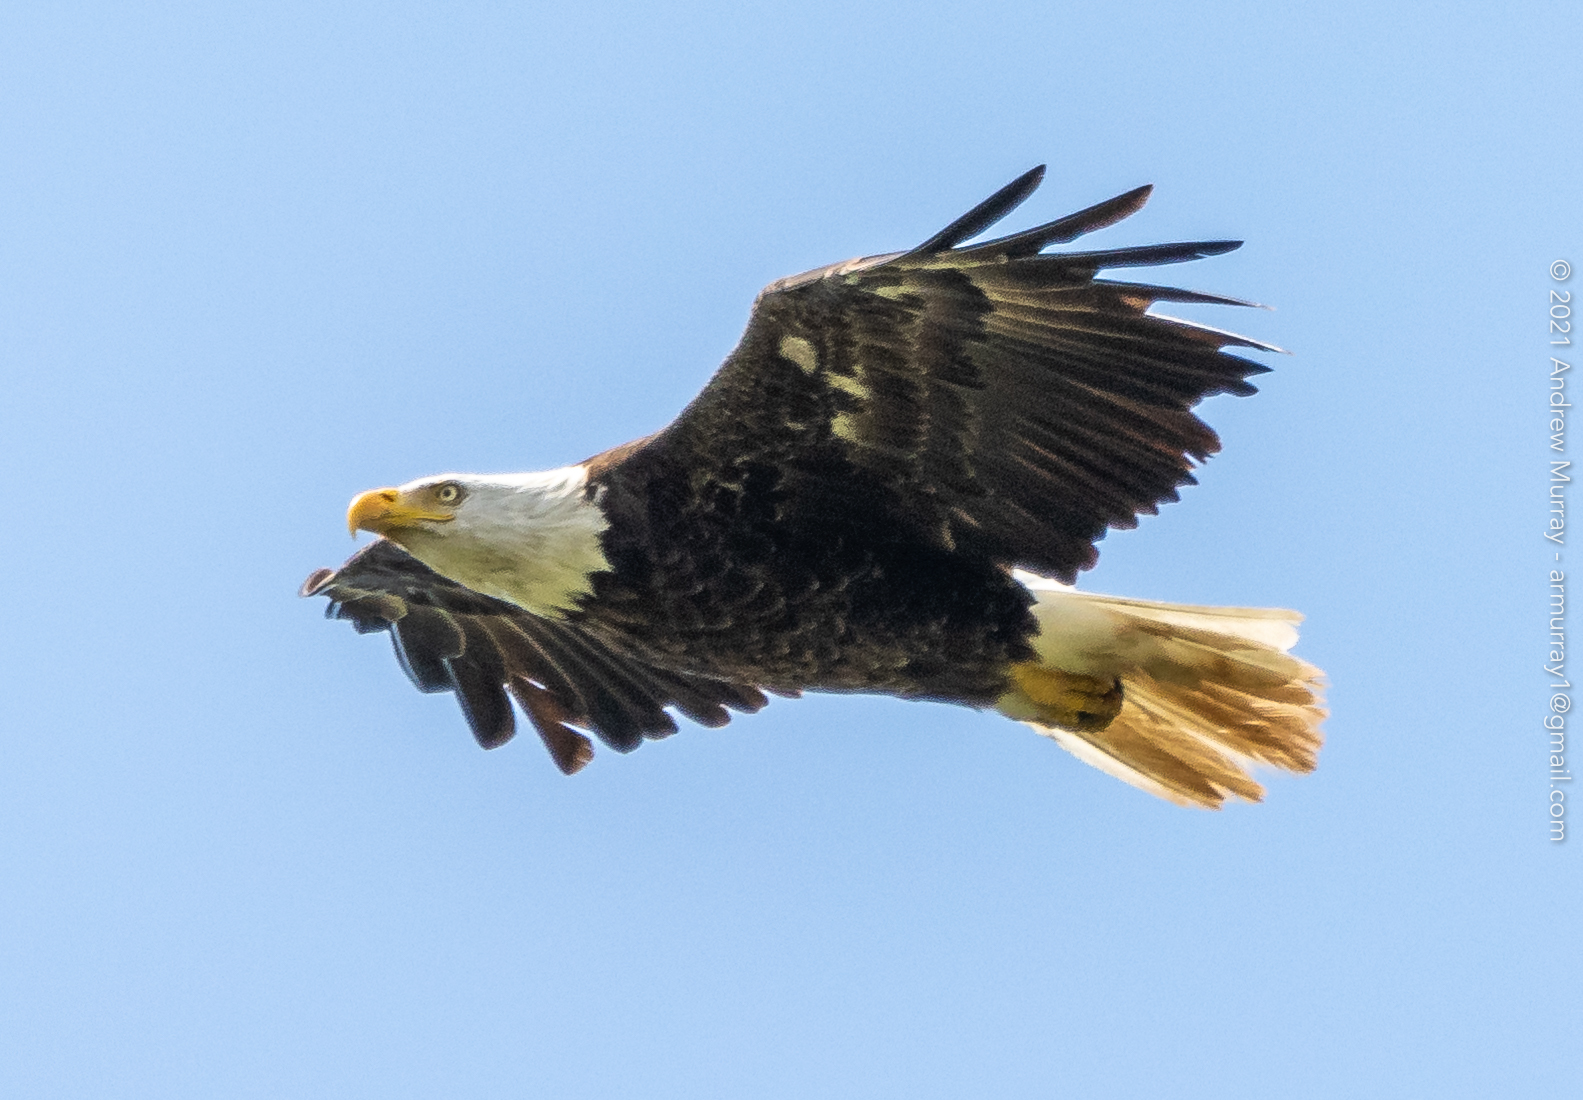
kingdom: Animalia
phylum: Chordata
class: Aves
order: Accipitriformes
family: Accipitridae
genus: Haliaeetus
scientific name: Haliaeetus leucocephalus
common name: Bald eagle
